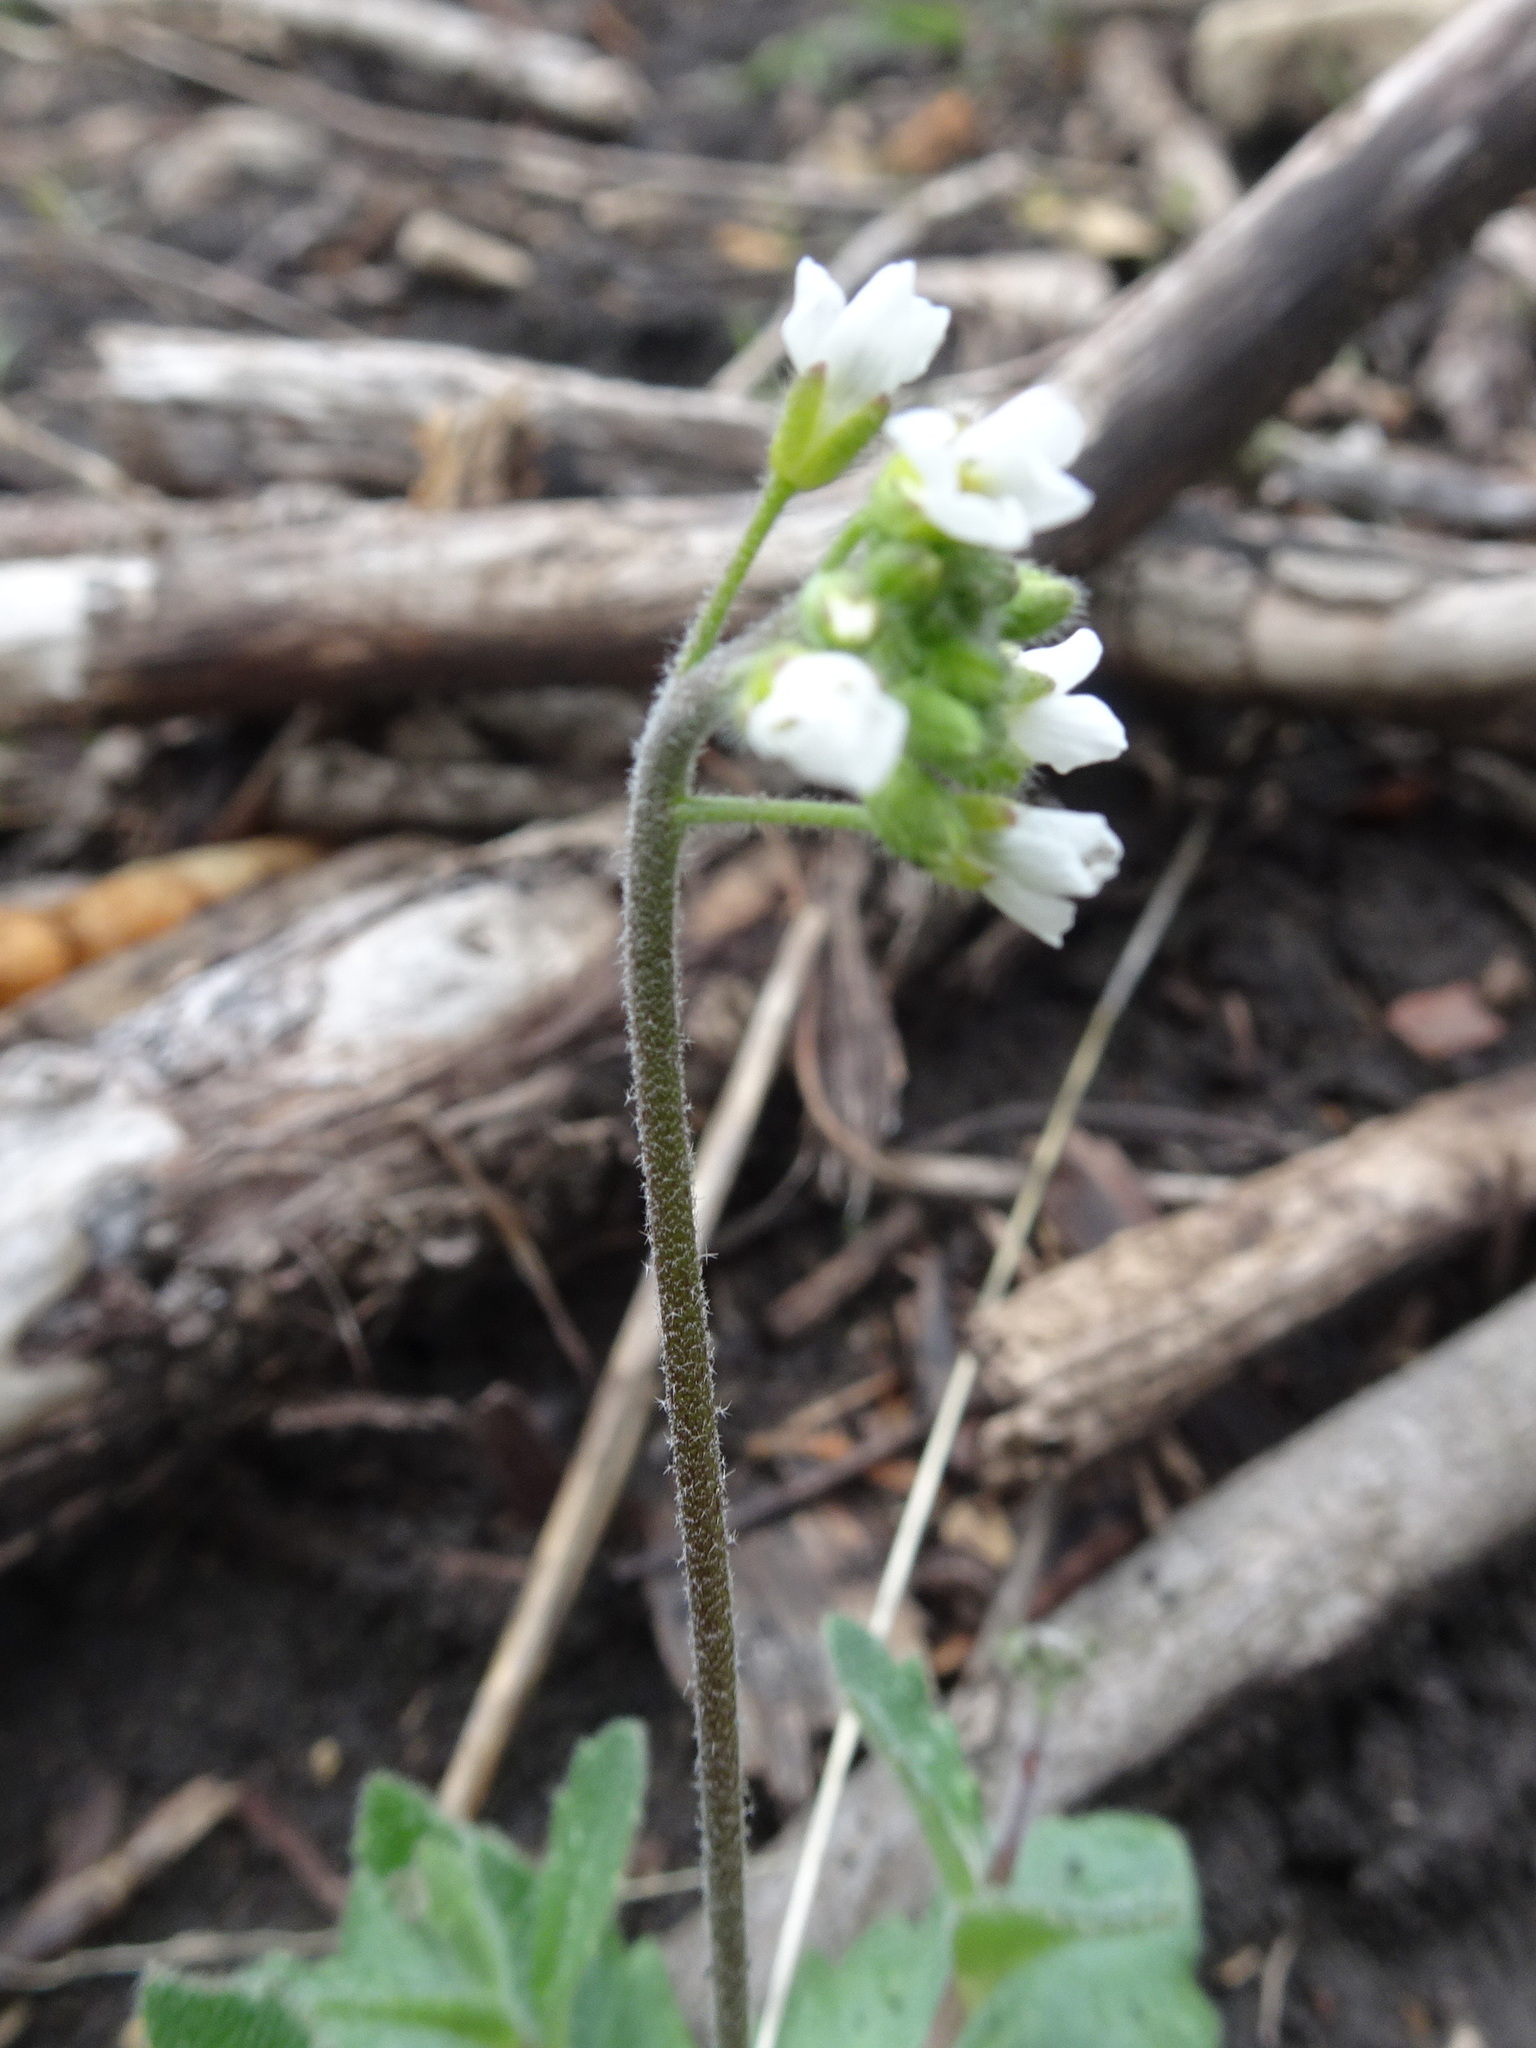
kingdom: Plantae
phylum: Tracheophyta
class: Magnoliopsida
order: Brassicales
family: Brassicaceae
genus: Tomostima
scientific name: Tomostima cuneifolia
